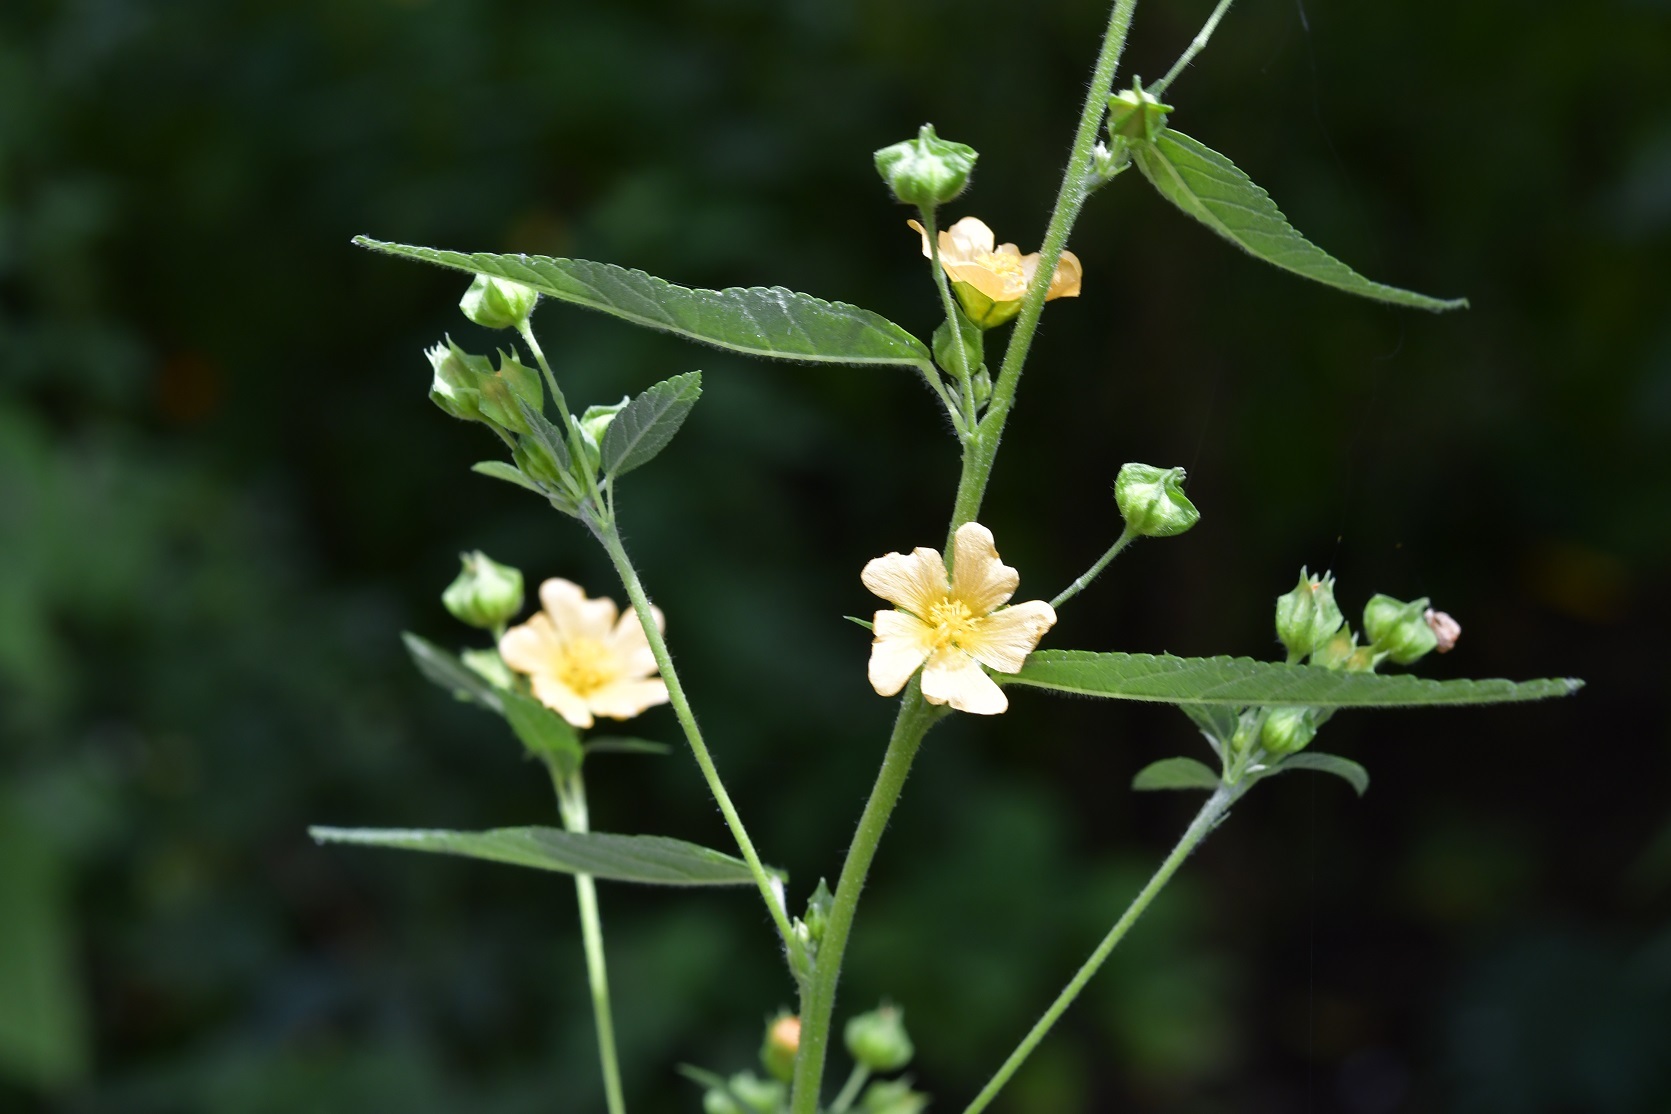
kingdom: Plantae
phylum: Tracheophyta
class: Magnoliopsida
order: Malvales
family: Malvaceae
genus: Sida
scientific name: Sida acuta
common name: Common wireweed
